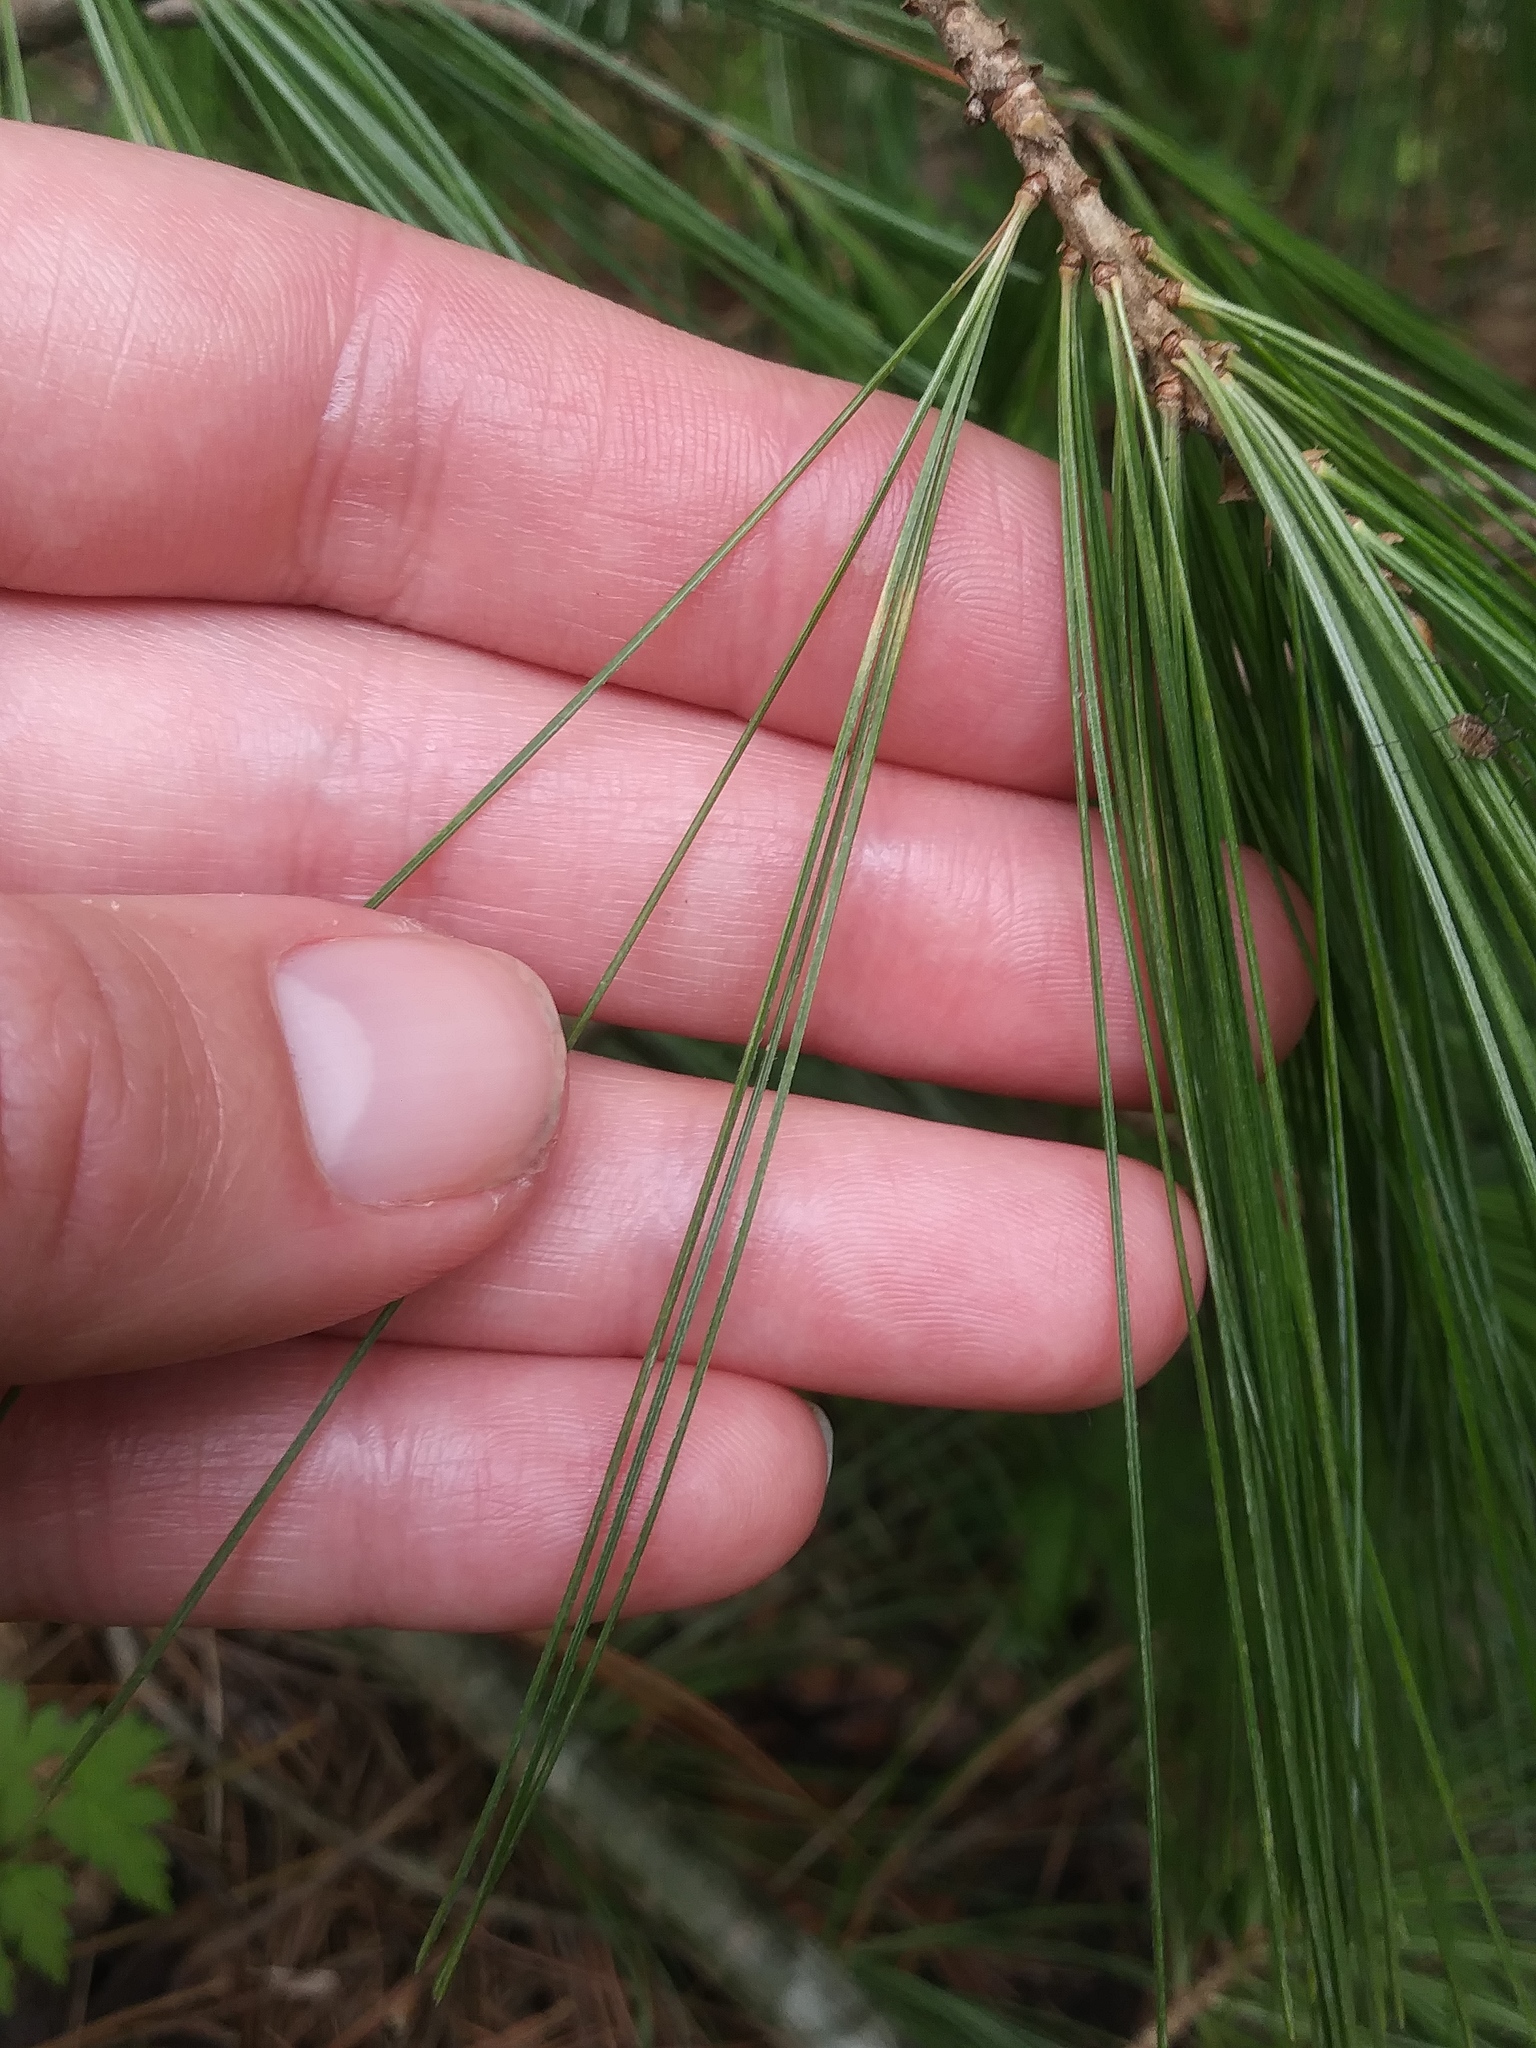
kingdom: Plantae
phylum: Tracheophyta
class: Pinopsida
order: Pinales
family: Pinaceae
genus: Pinus
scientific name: Pinus strobus
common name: Weymouth pine
